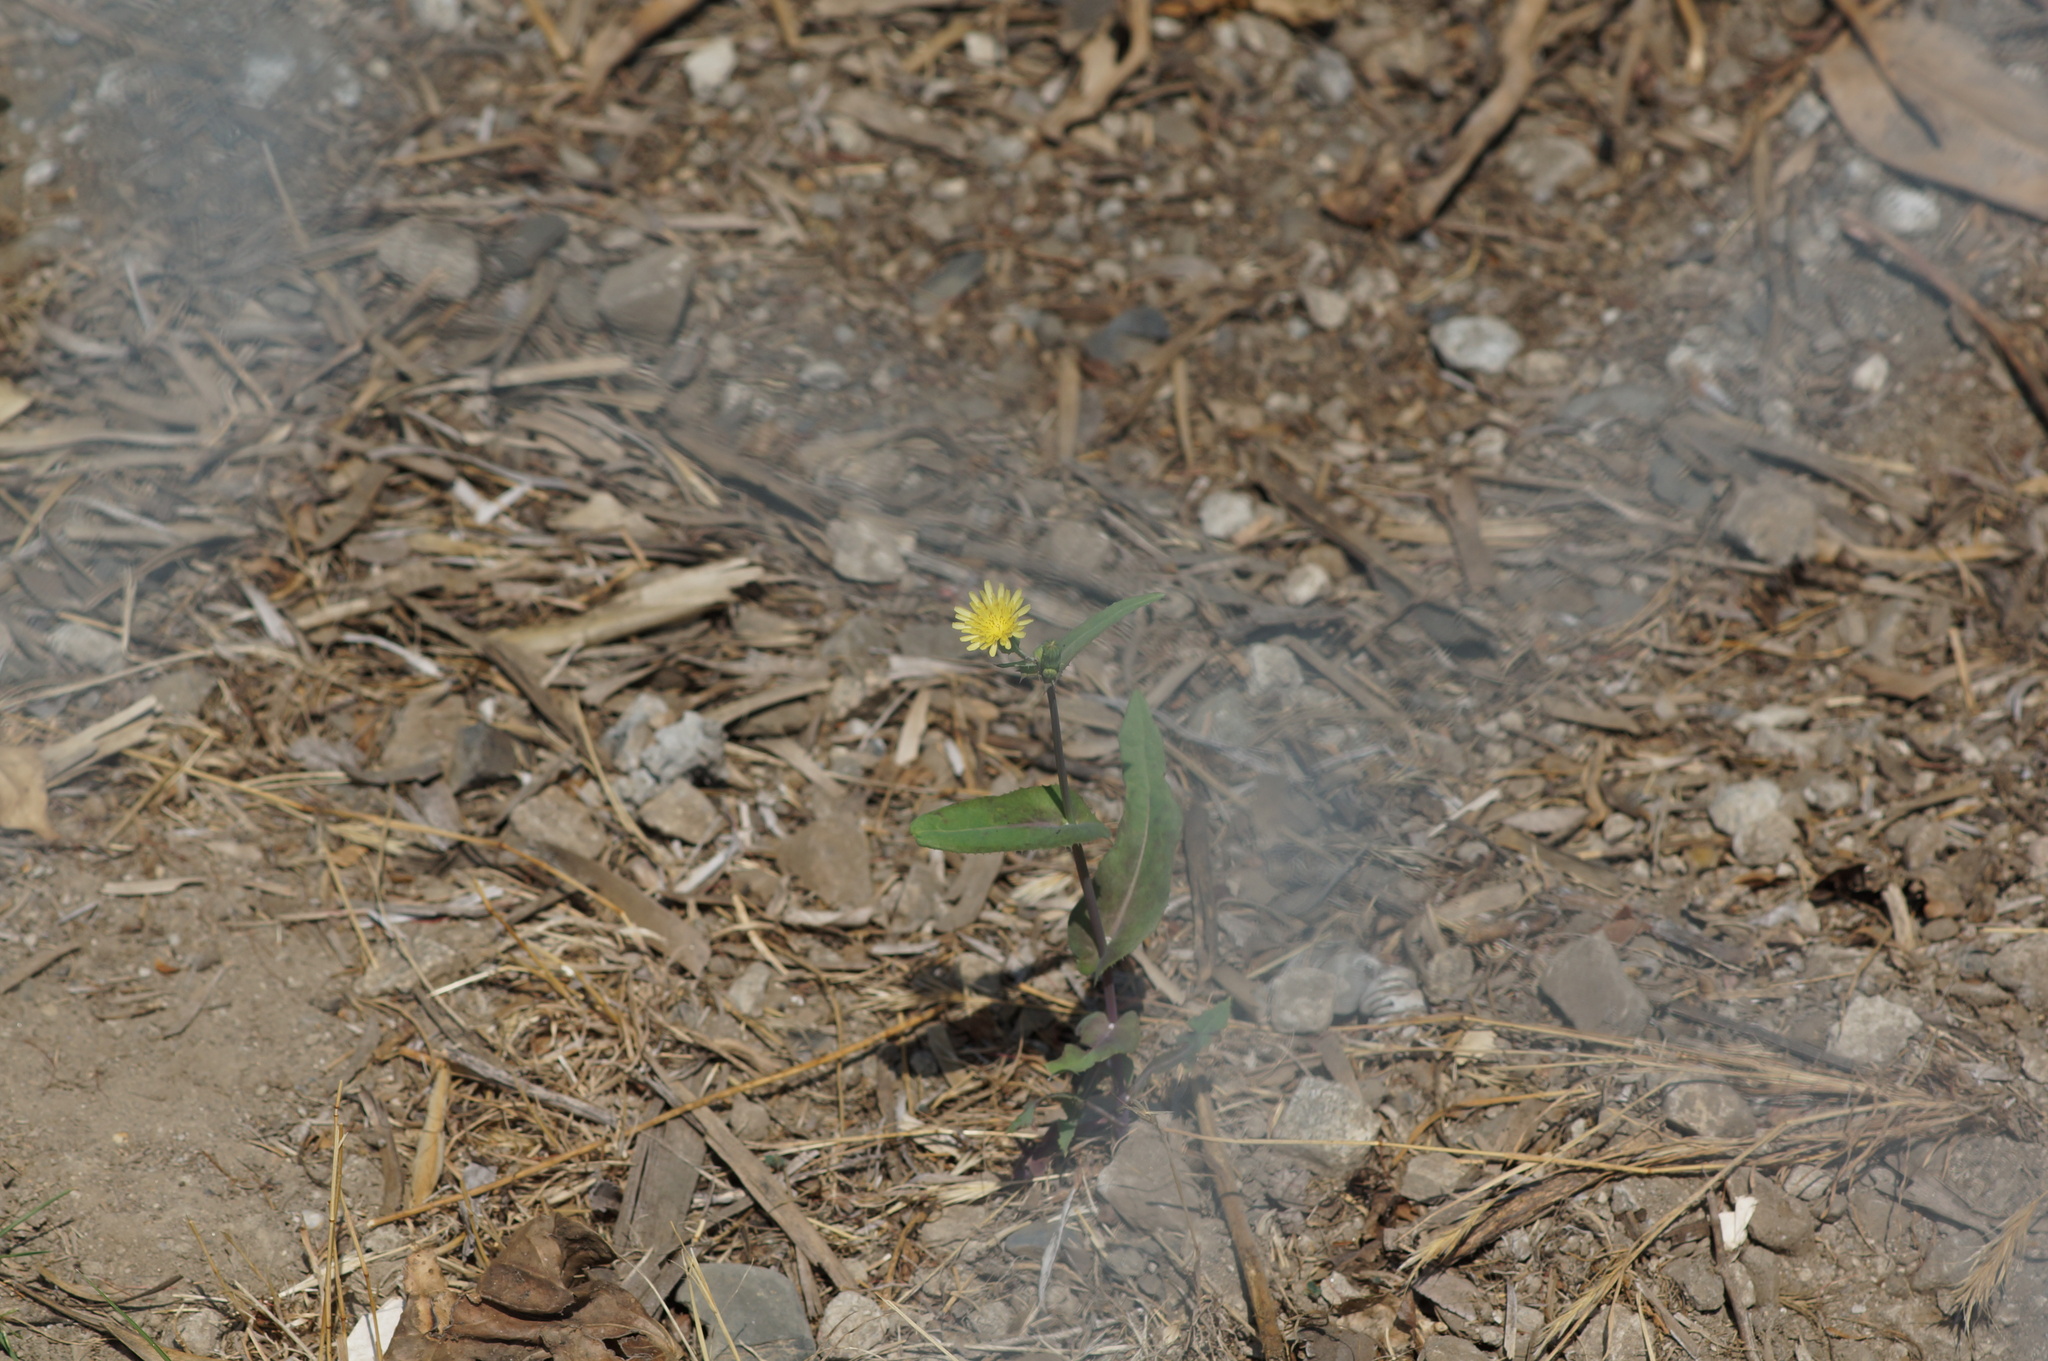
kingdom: Plantae
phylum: Tracheophyta
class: Magnoliopsida
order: Asterales
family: Asteraceae
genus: Sonchus
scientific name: Sonchus oleraceus
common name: Common sowthistle
